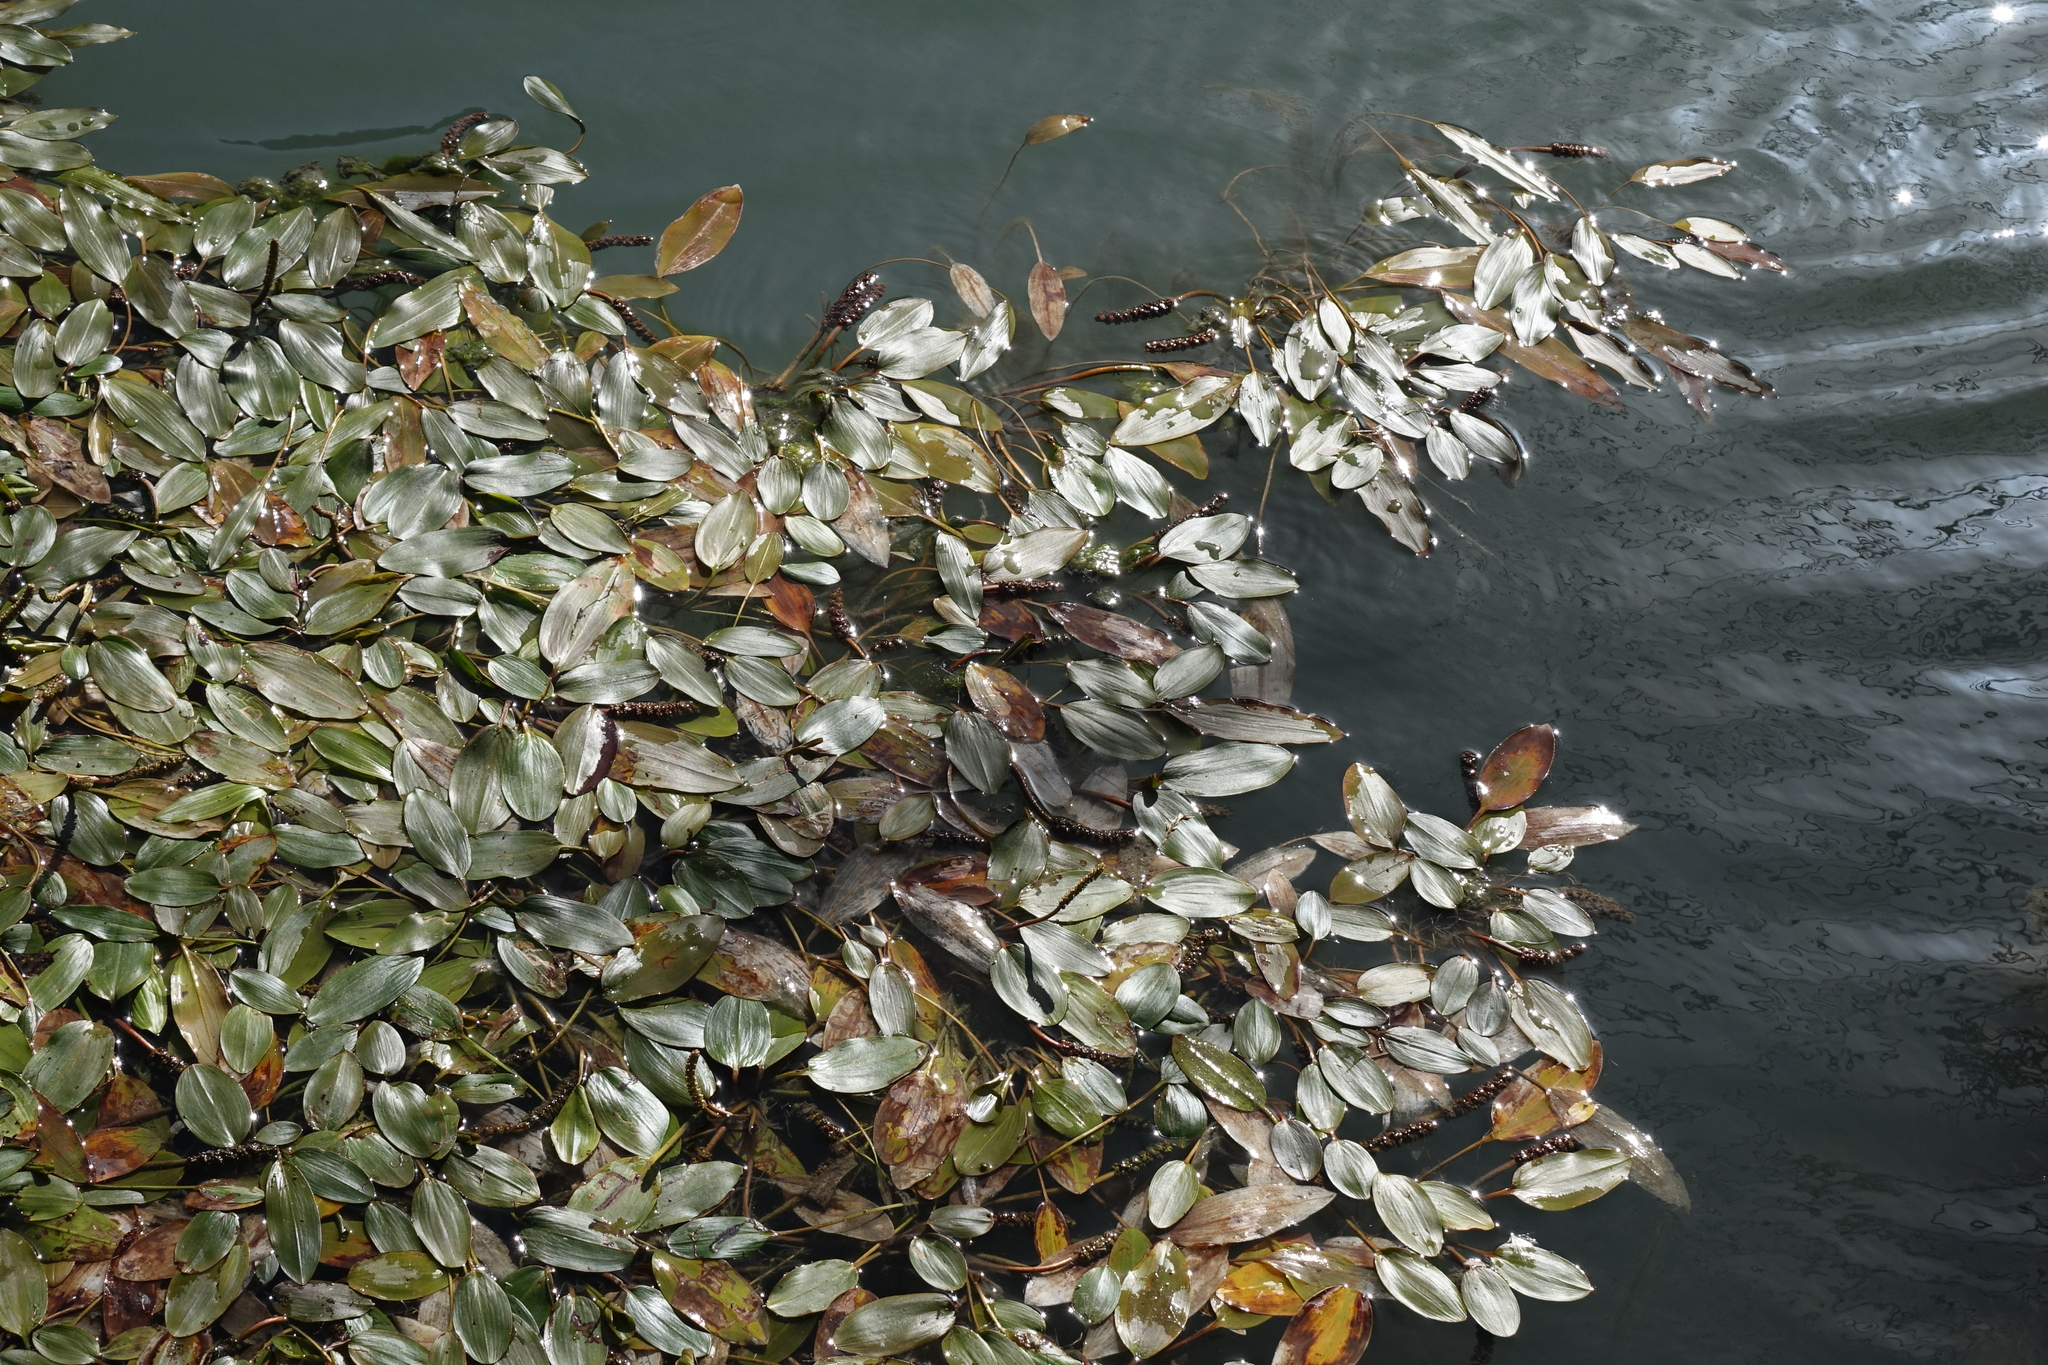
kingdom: Plantae
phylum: Tracheophyta
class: Liliopsida
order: Alismatales
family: Potamogetonaceae
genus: Potamogeton
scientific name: Potamogeton nodosus
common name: Loddon pondweed
